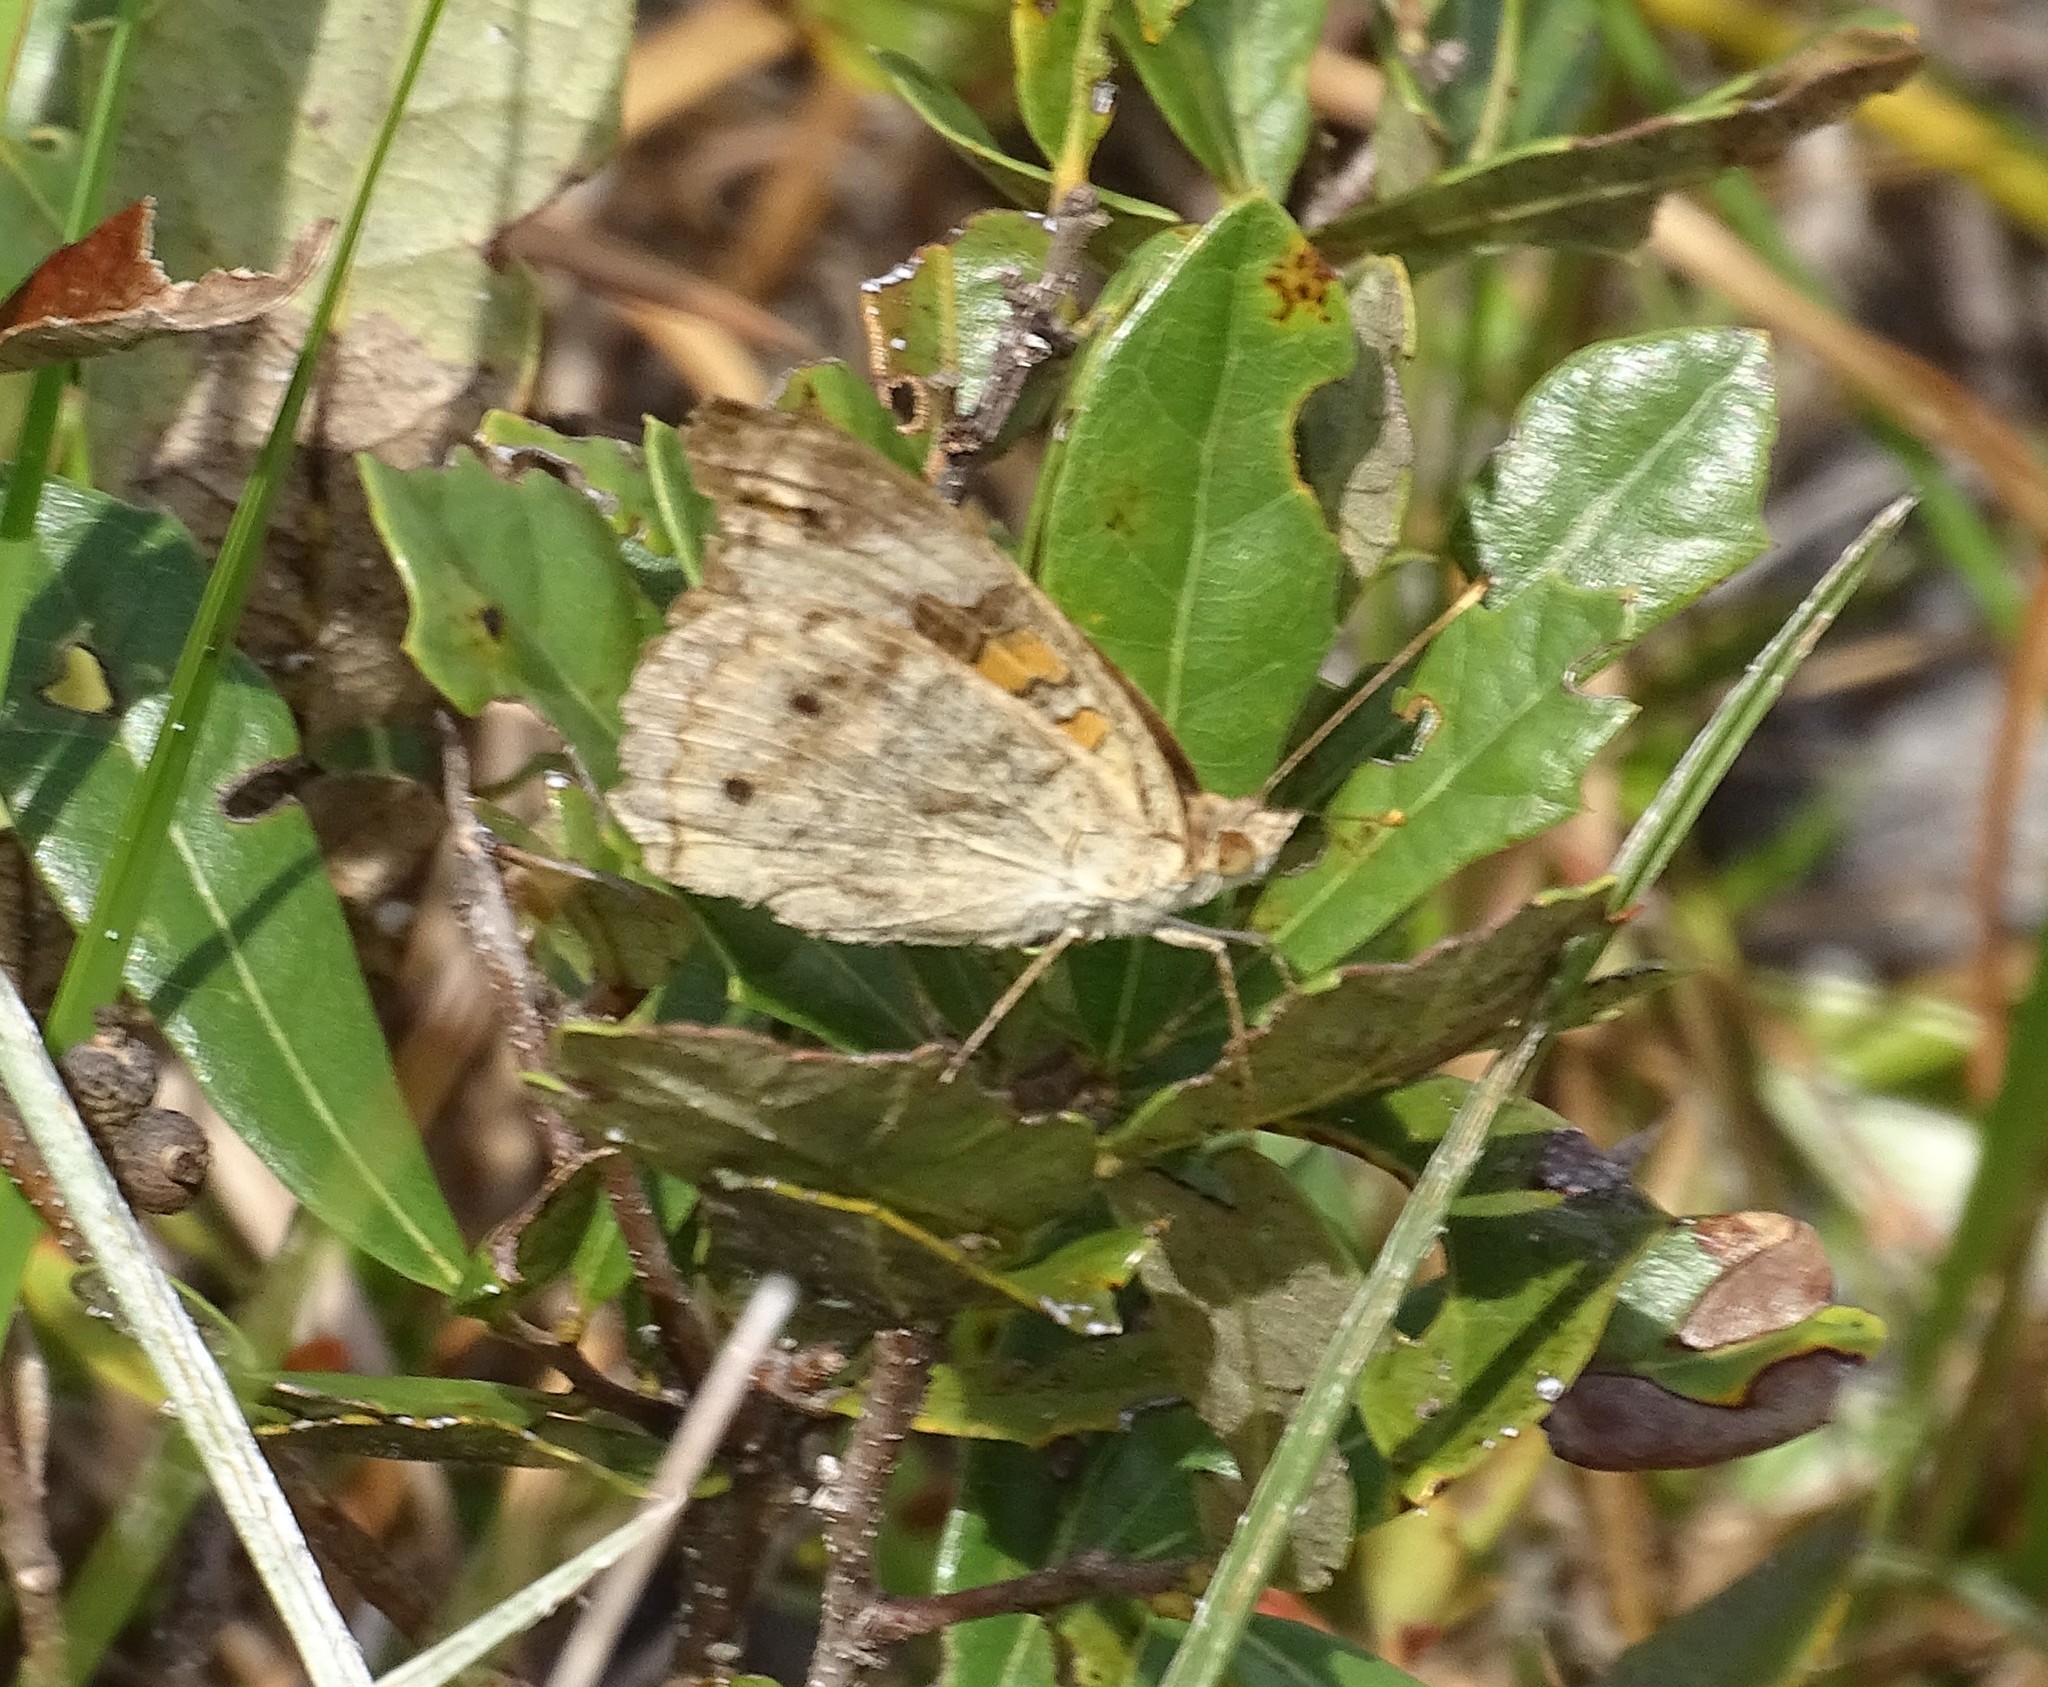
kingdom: Animalia
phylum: Arthropoda
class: Insecta
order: Lepidoptera
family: Nymphalidae
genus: Junonia
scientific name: Junonia coenia
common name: Common buckeye
